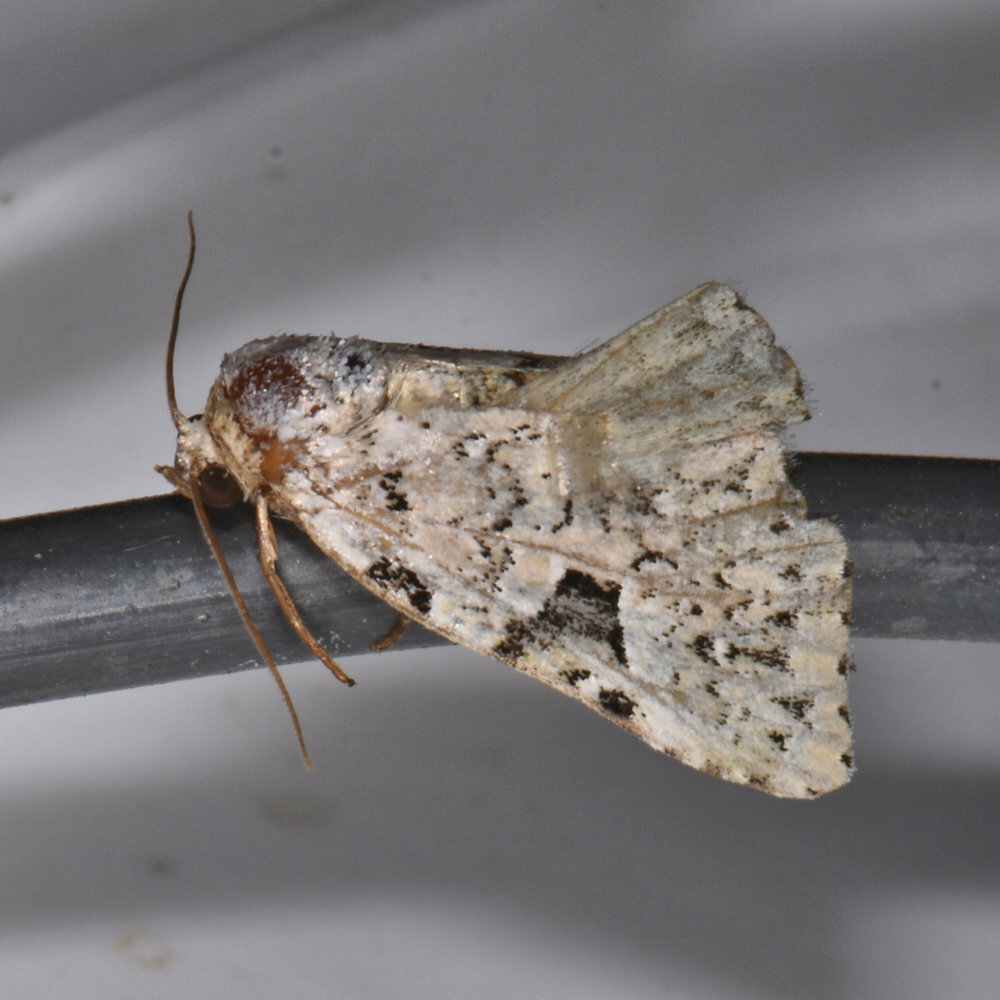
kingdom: Animalia
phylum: Arthropoda
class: Insecta
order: Lepidoptera
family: Noctuidae
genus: Leuconycta
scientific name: Leuconycta diphteroides
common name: Green leuconycta moth
